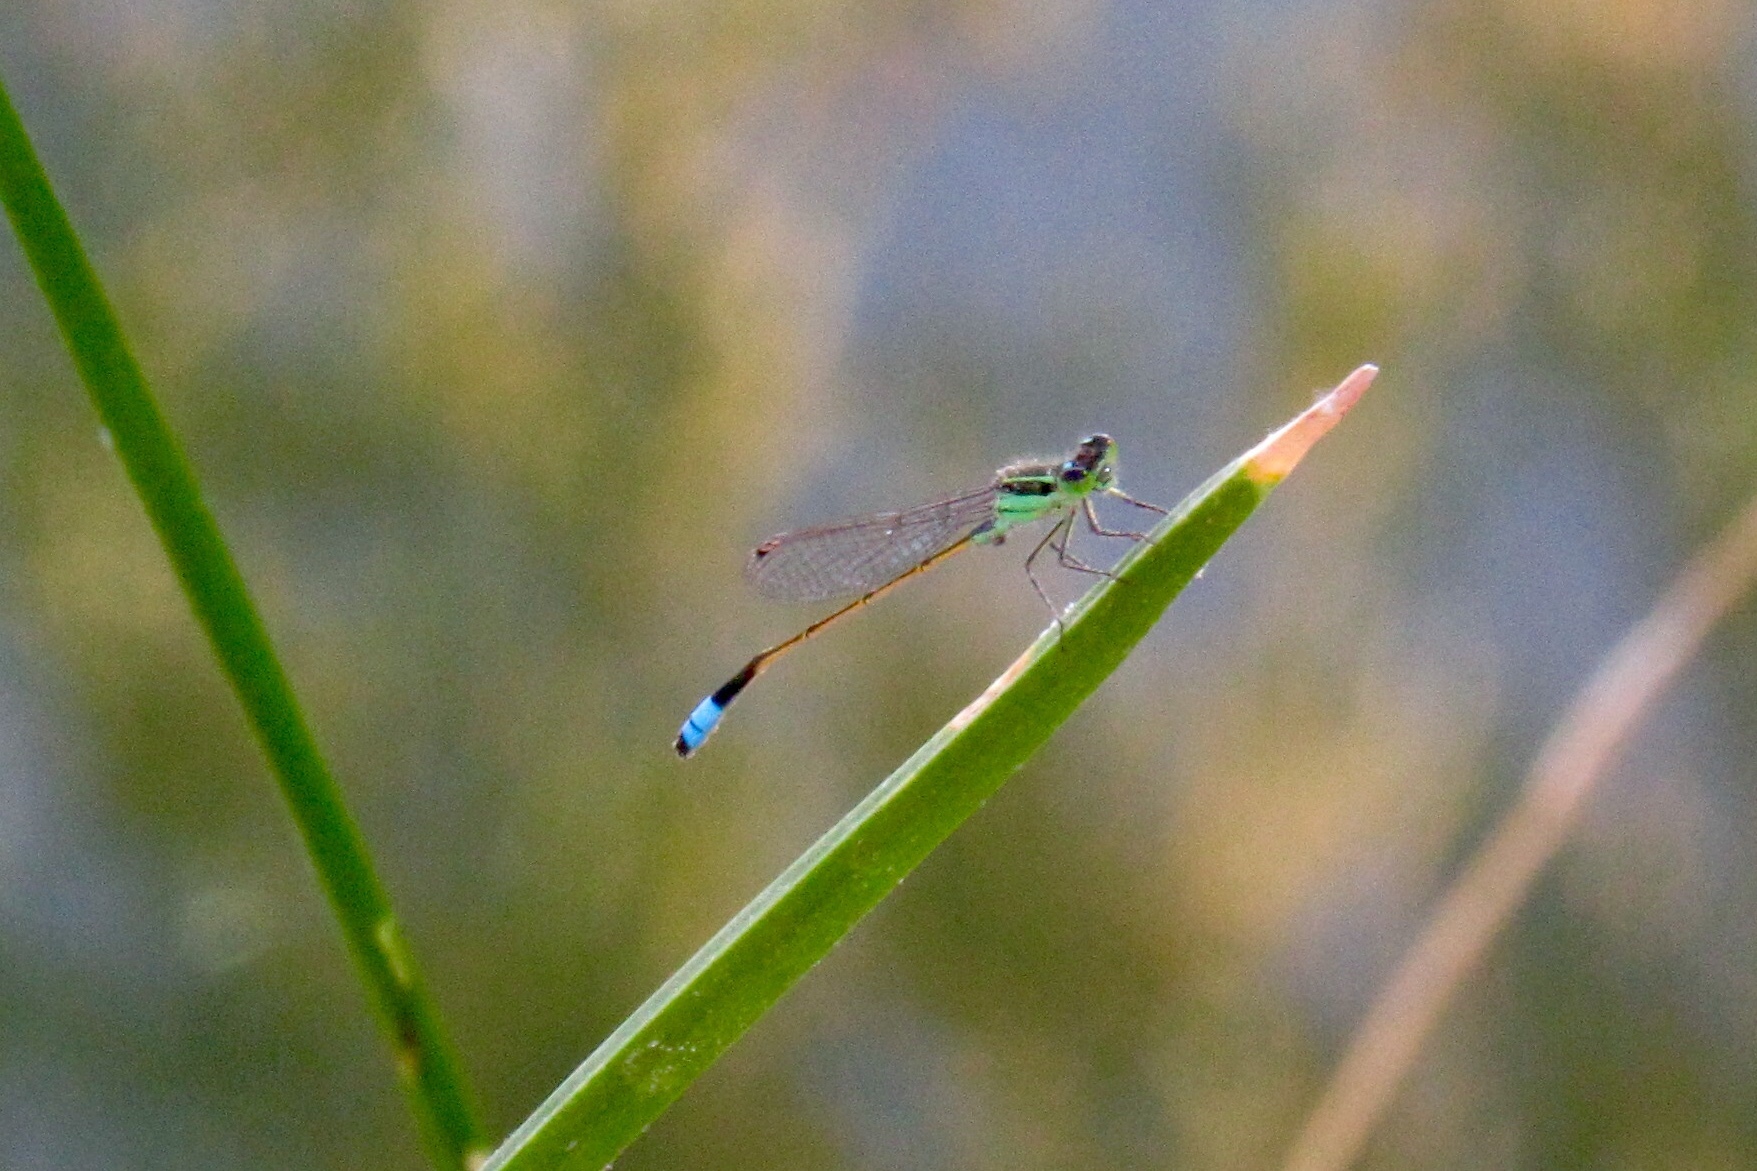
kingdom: Animalia
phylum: Arthropoda
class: Insecta
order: Odonata
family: Coenagrionidae
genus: Ischnura
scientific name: Ischnura ramburii
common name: Rambur's forktail
